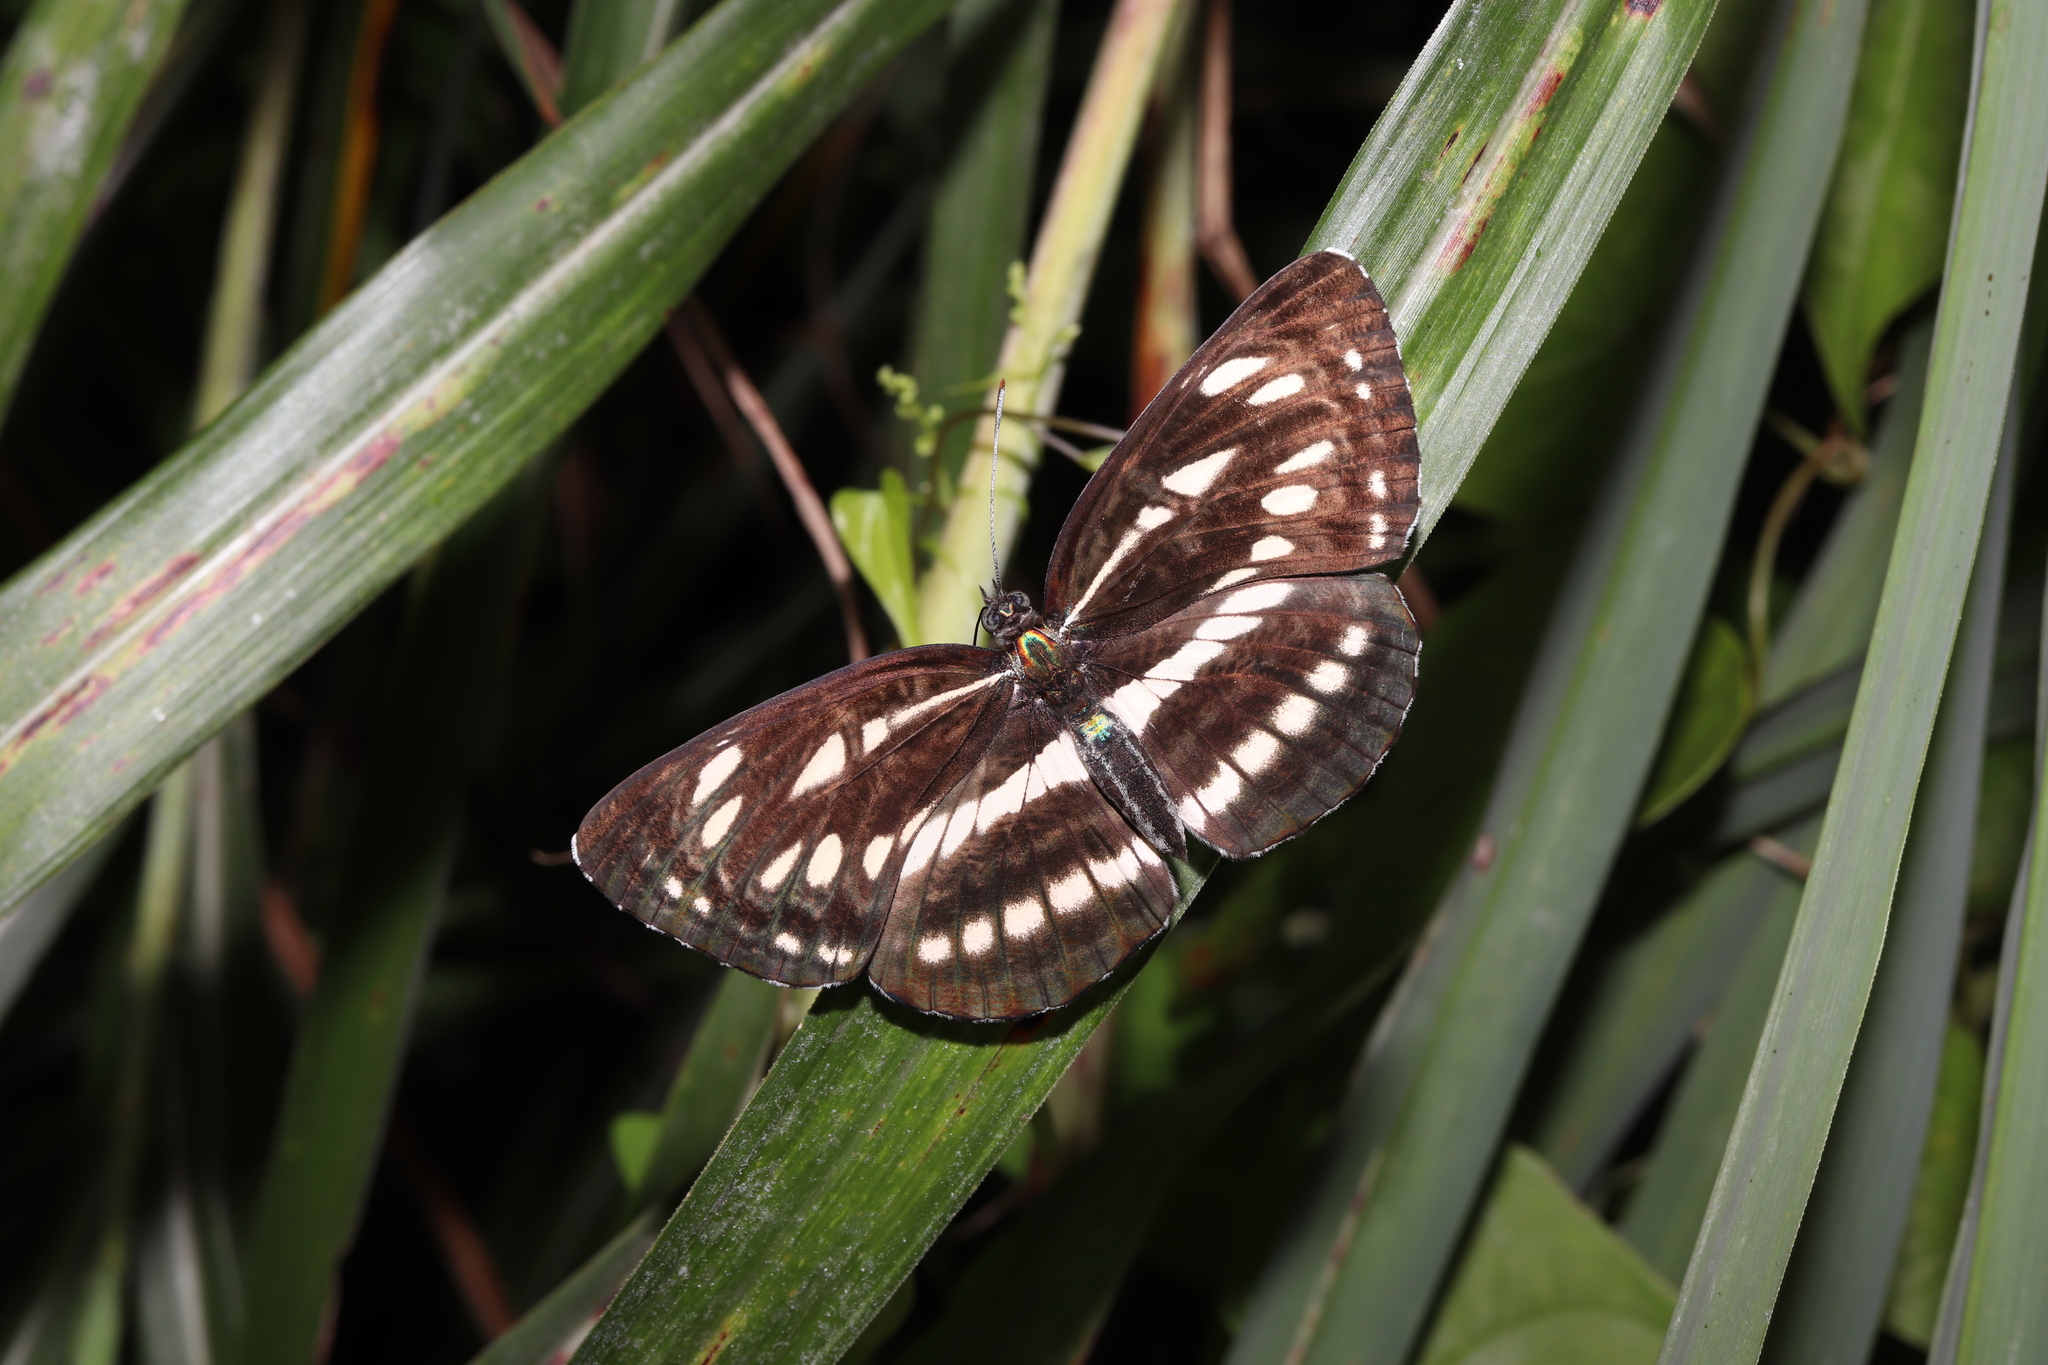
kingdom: Animalia
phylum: Arthropoda
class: Insecta
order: Lepidoptera
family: Nymphalidae
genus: Neptis
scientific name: Neptis sappho
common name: Common glider
